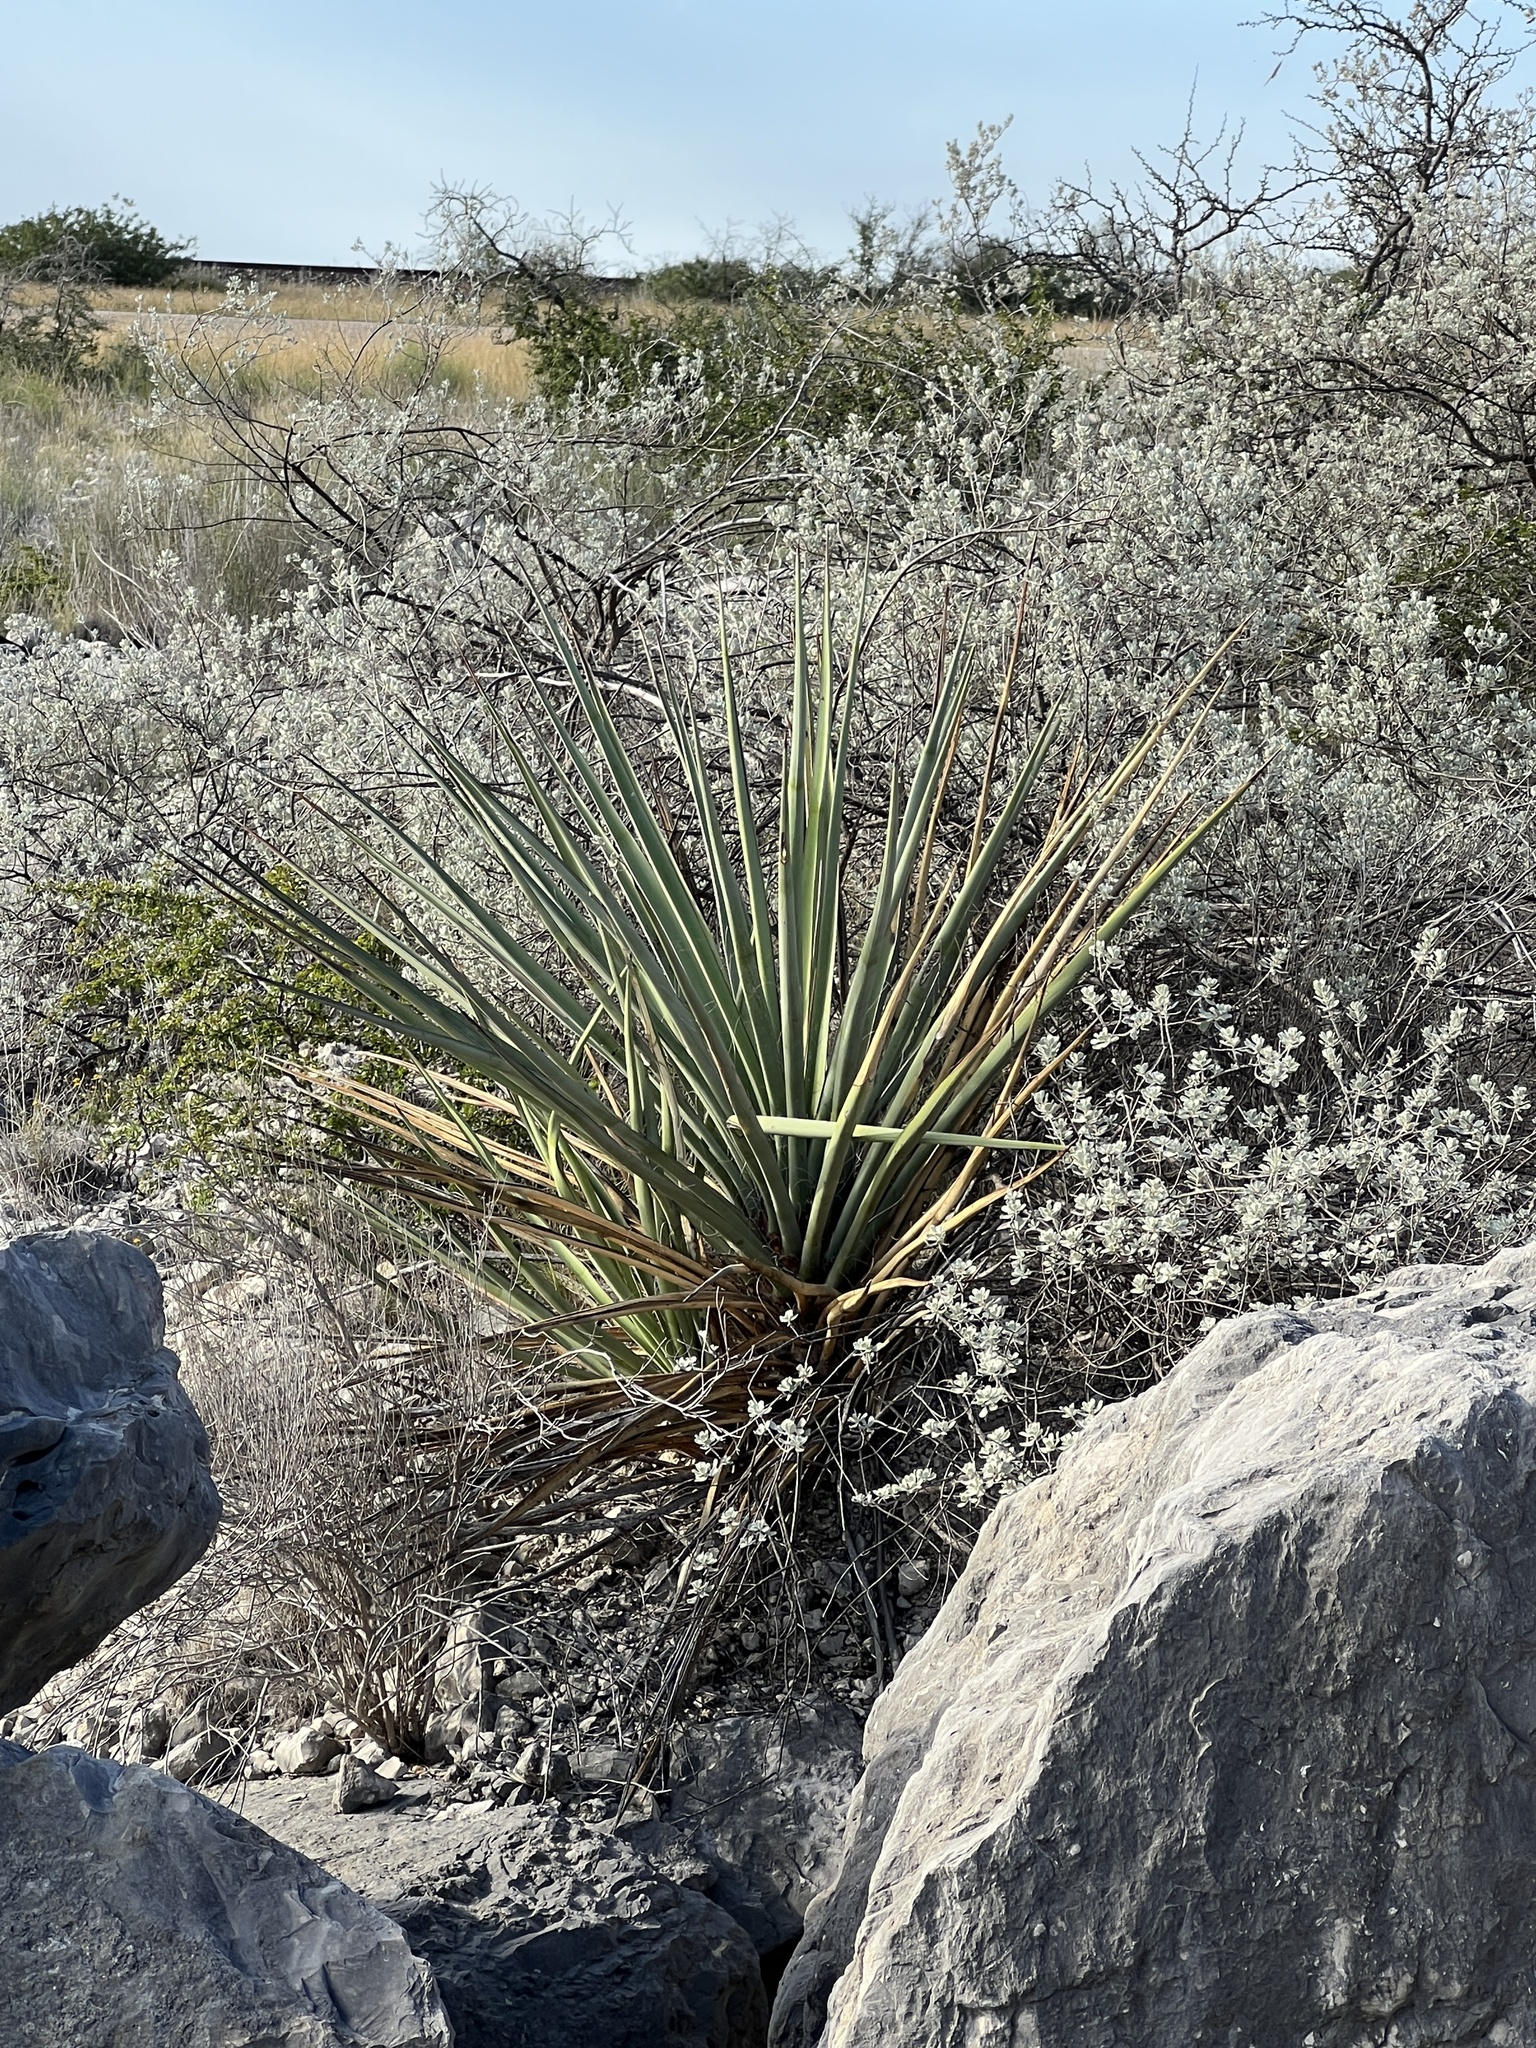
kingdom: Plantae
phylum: Tracheophyta
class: Liliopsida
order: Asparagales
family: Asparagaceae
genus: Yucca
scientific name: Yucca treculiana
